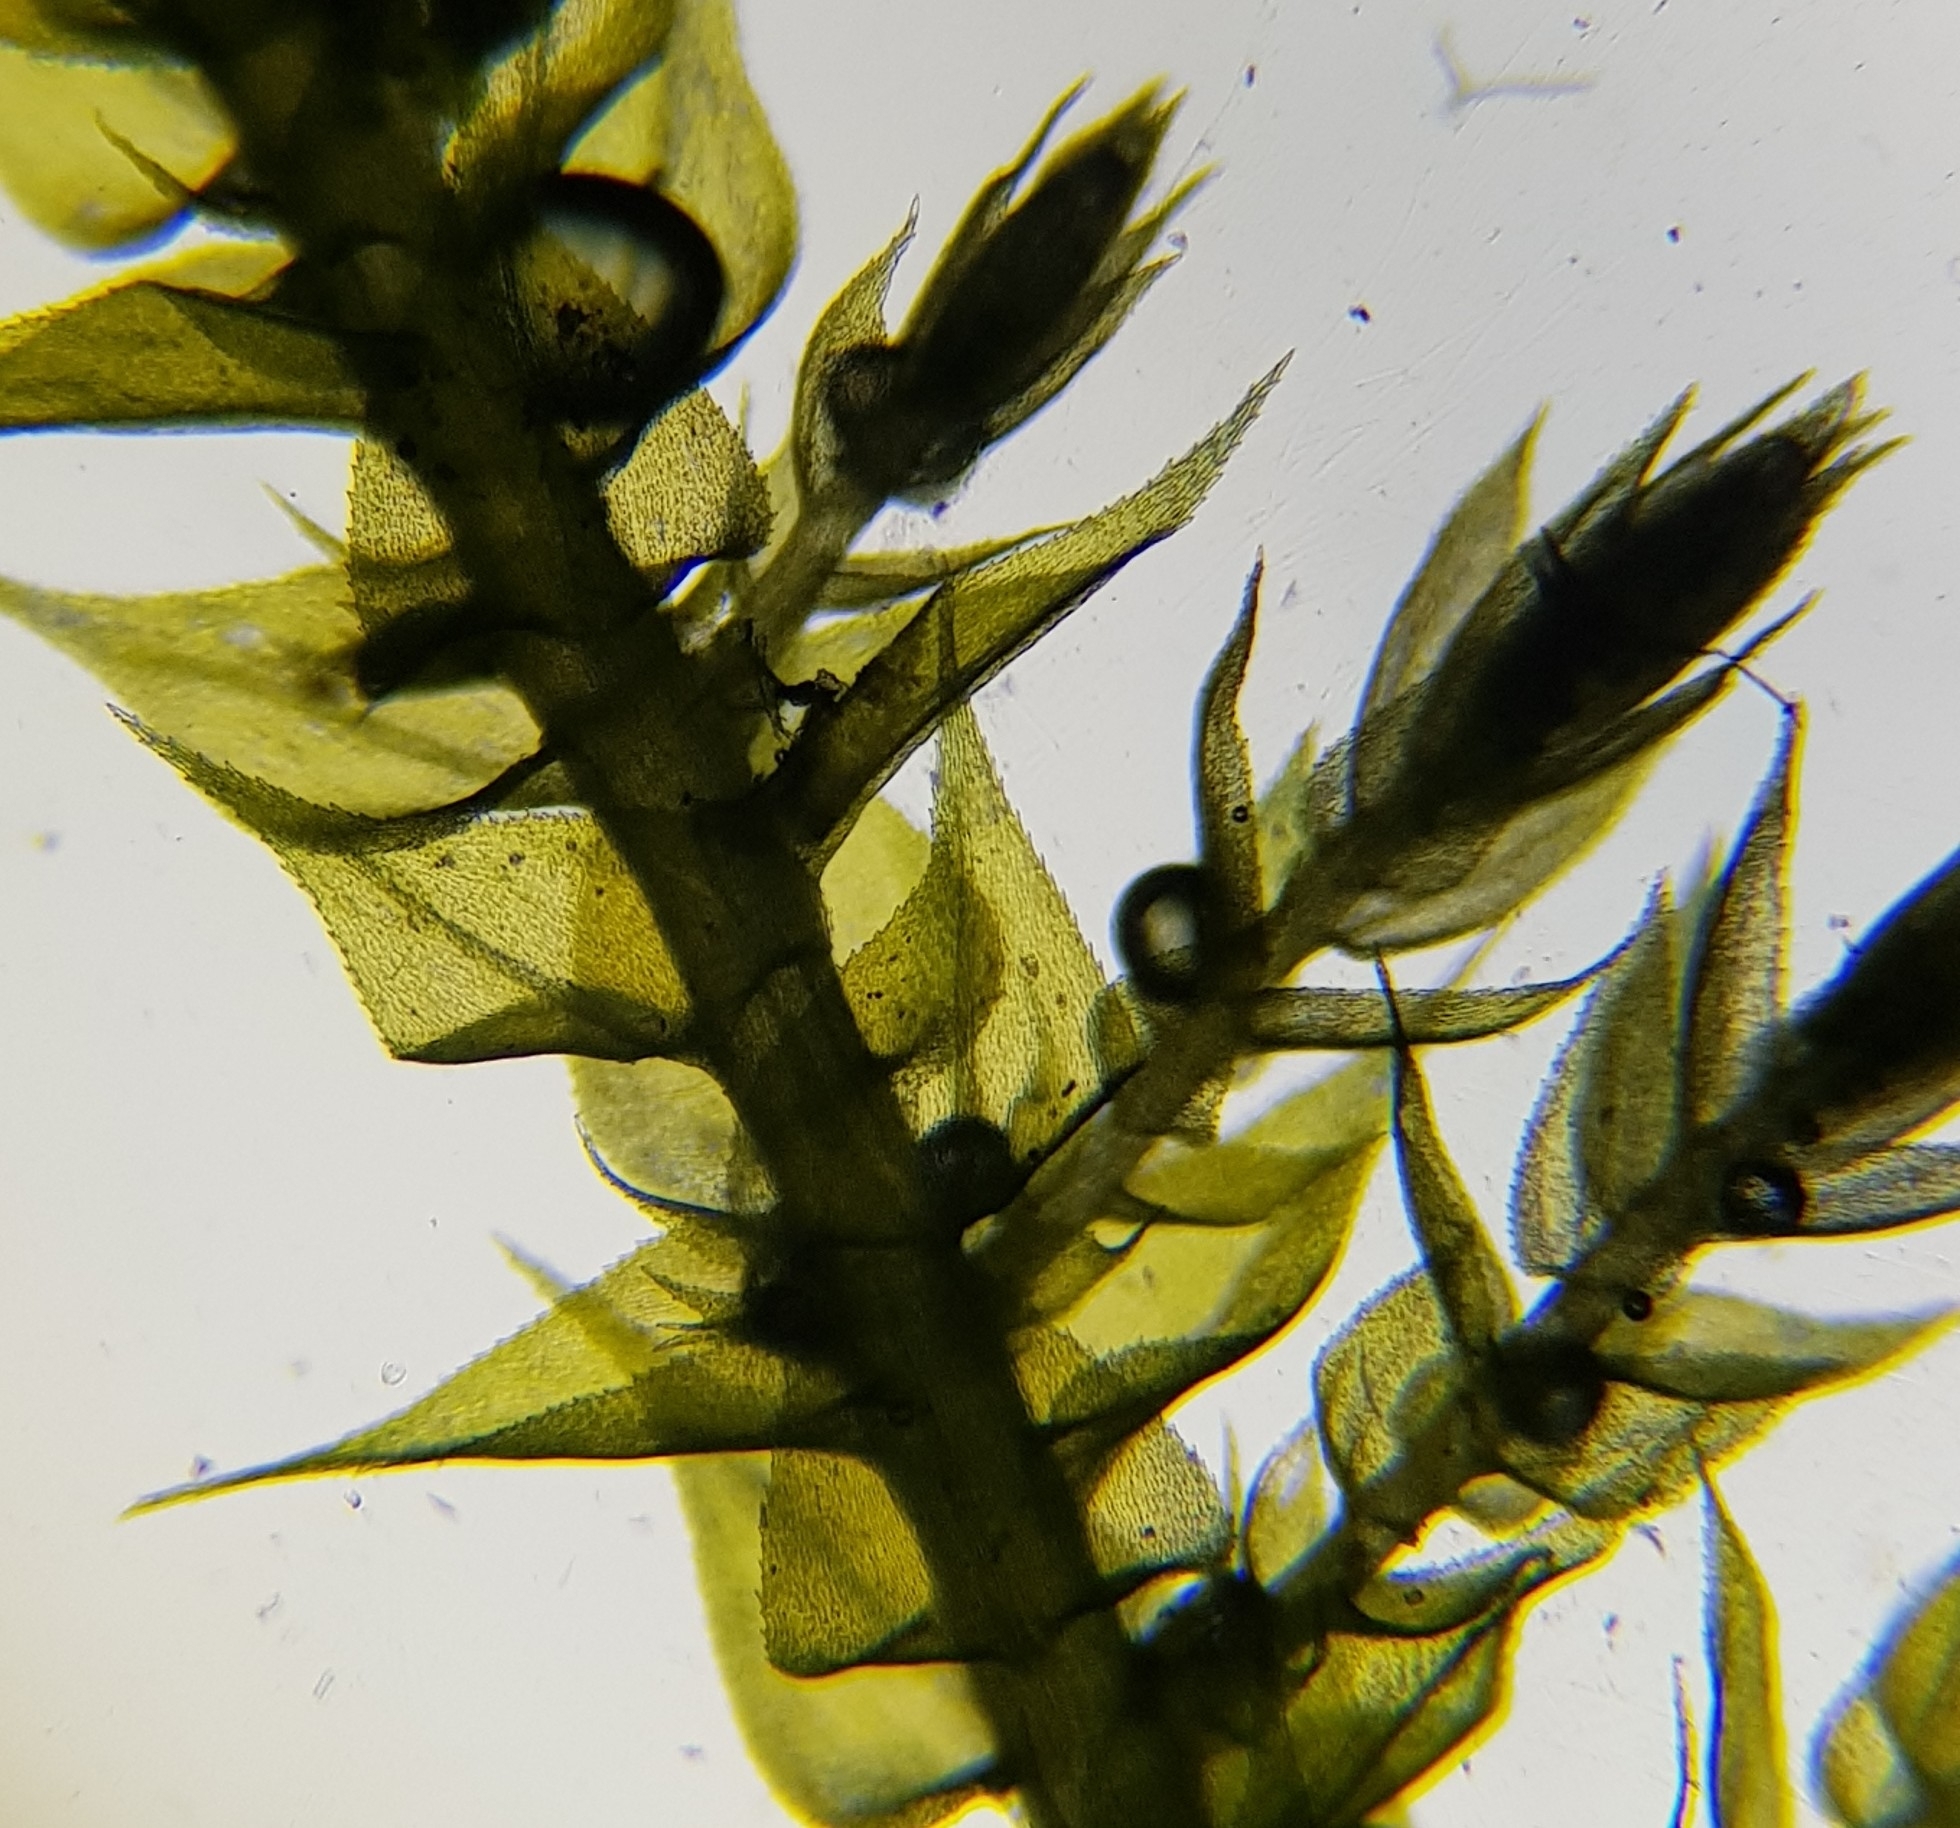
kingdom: Plantae
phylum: Bryophyta
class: Bryopsida
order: Hypnales
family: Brachytheciaceae
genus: Kindbergia
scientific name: Kindbergia praelonga
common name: Slender beaked moss
